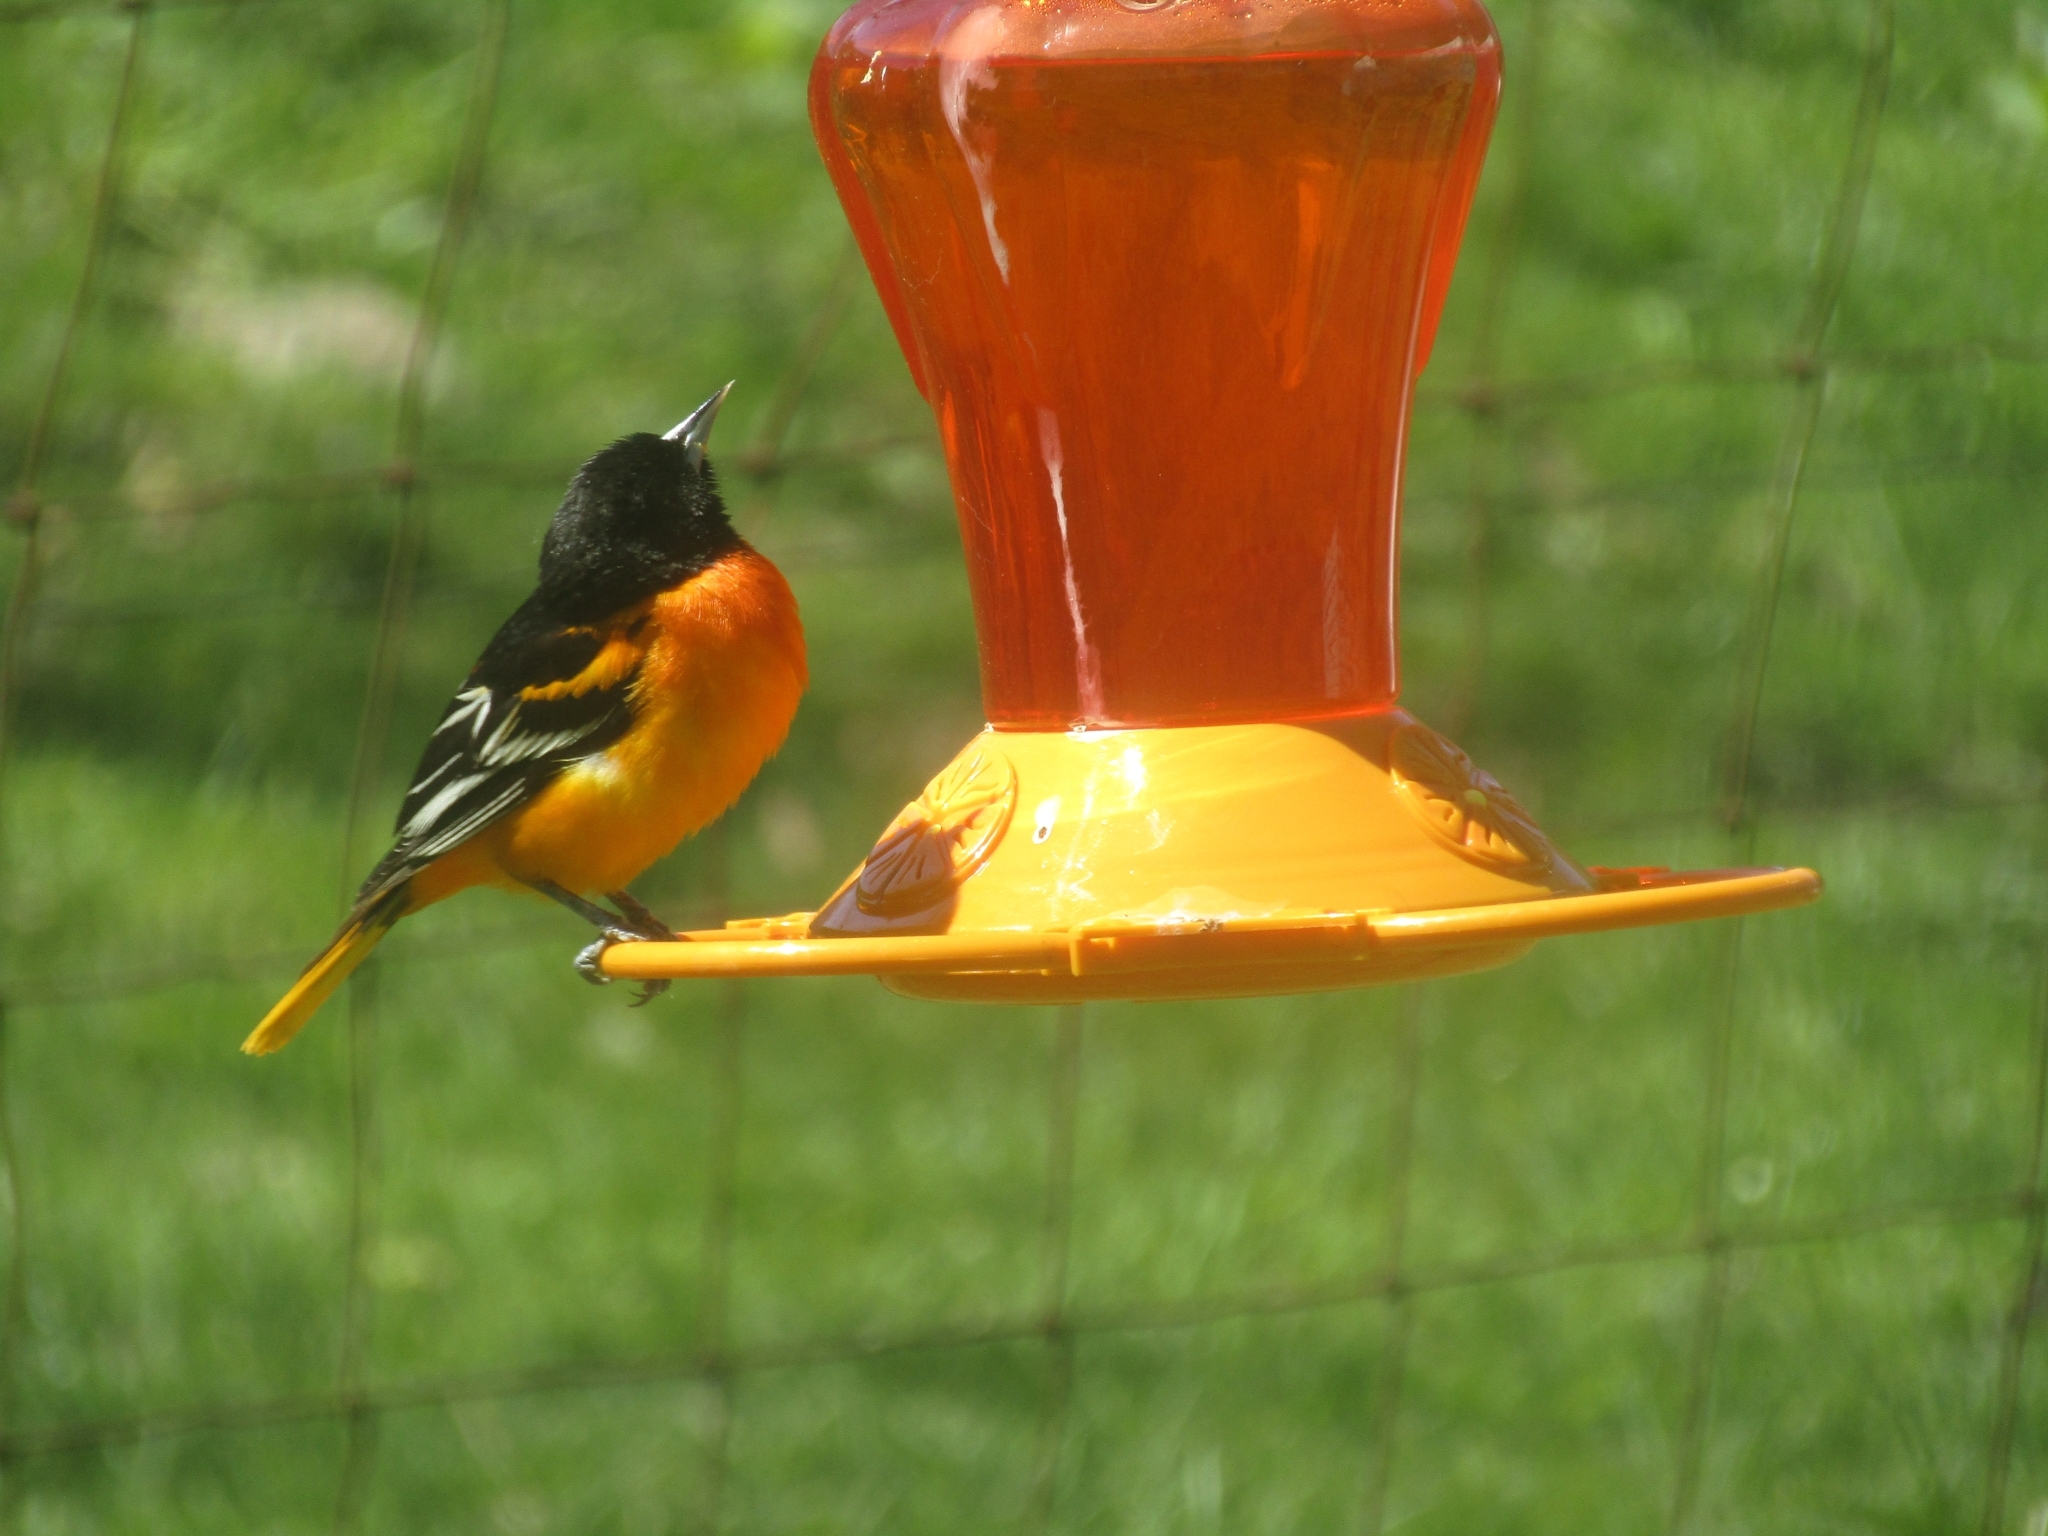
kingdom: Animalia
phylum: Chordata
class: Aves
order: Passeriformes
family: Icteridae
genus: Icterus
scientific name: Icterus galbula
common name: Baltimore oriole
